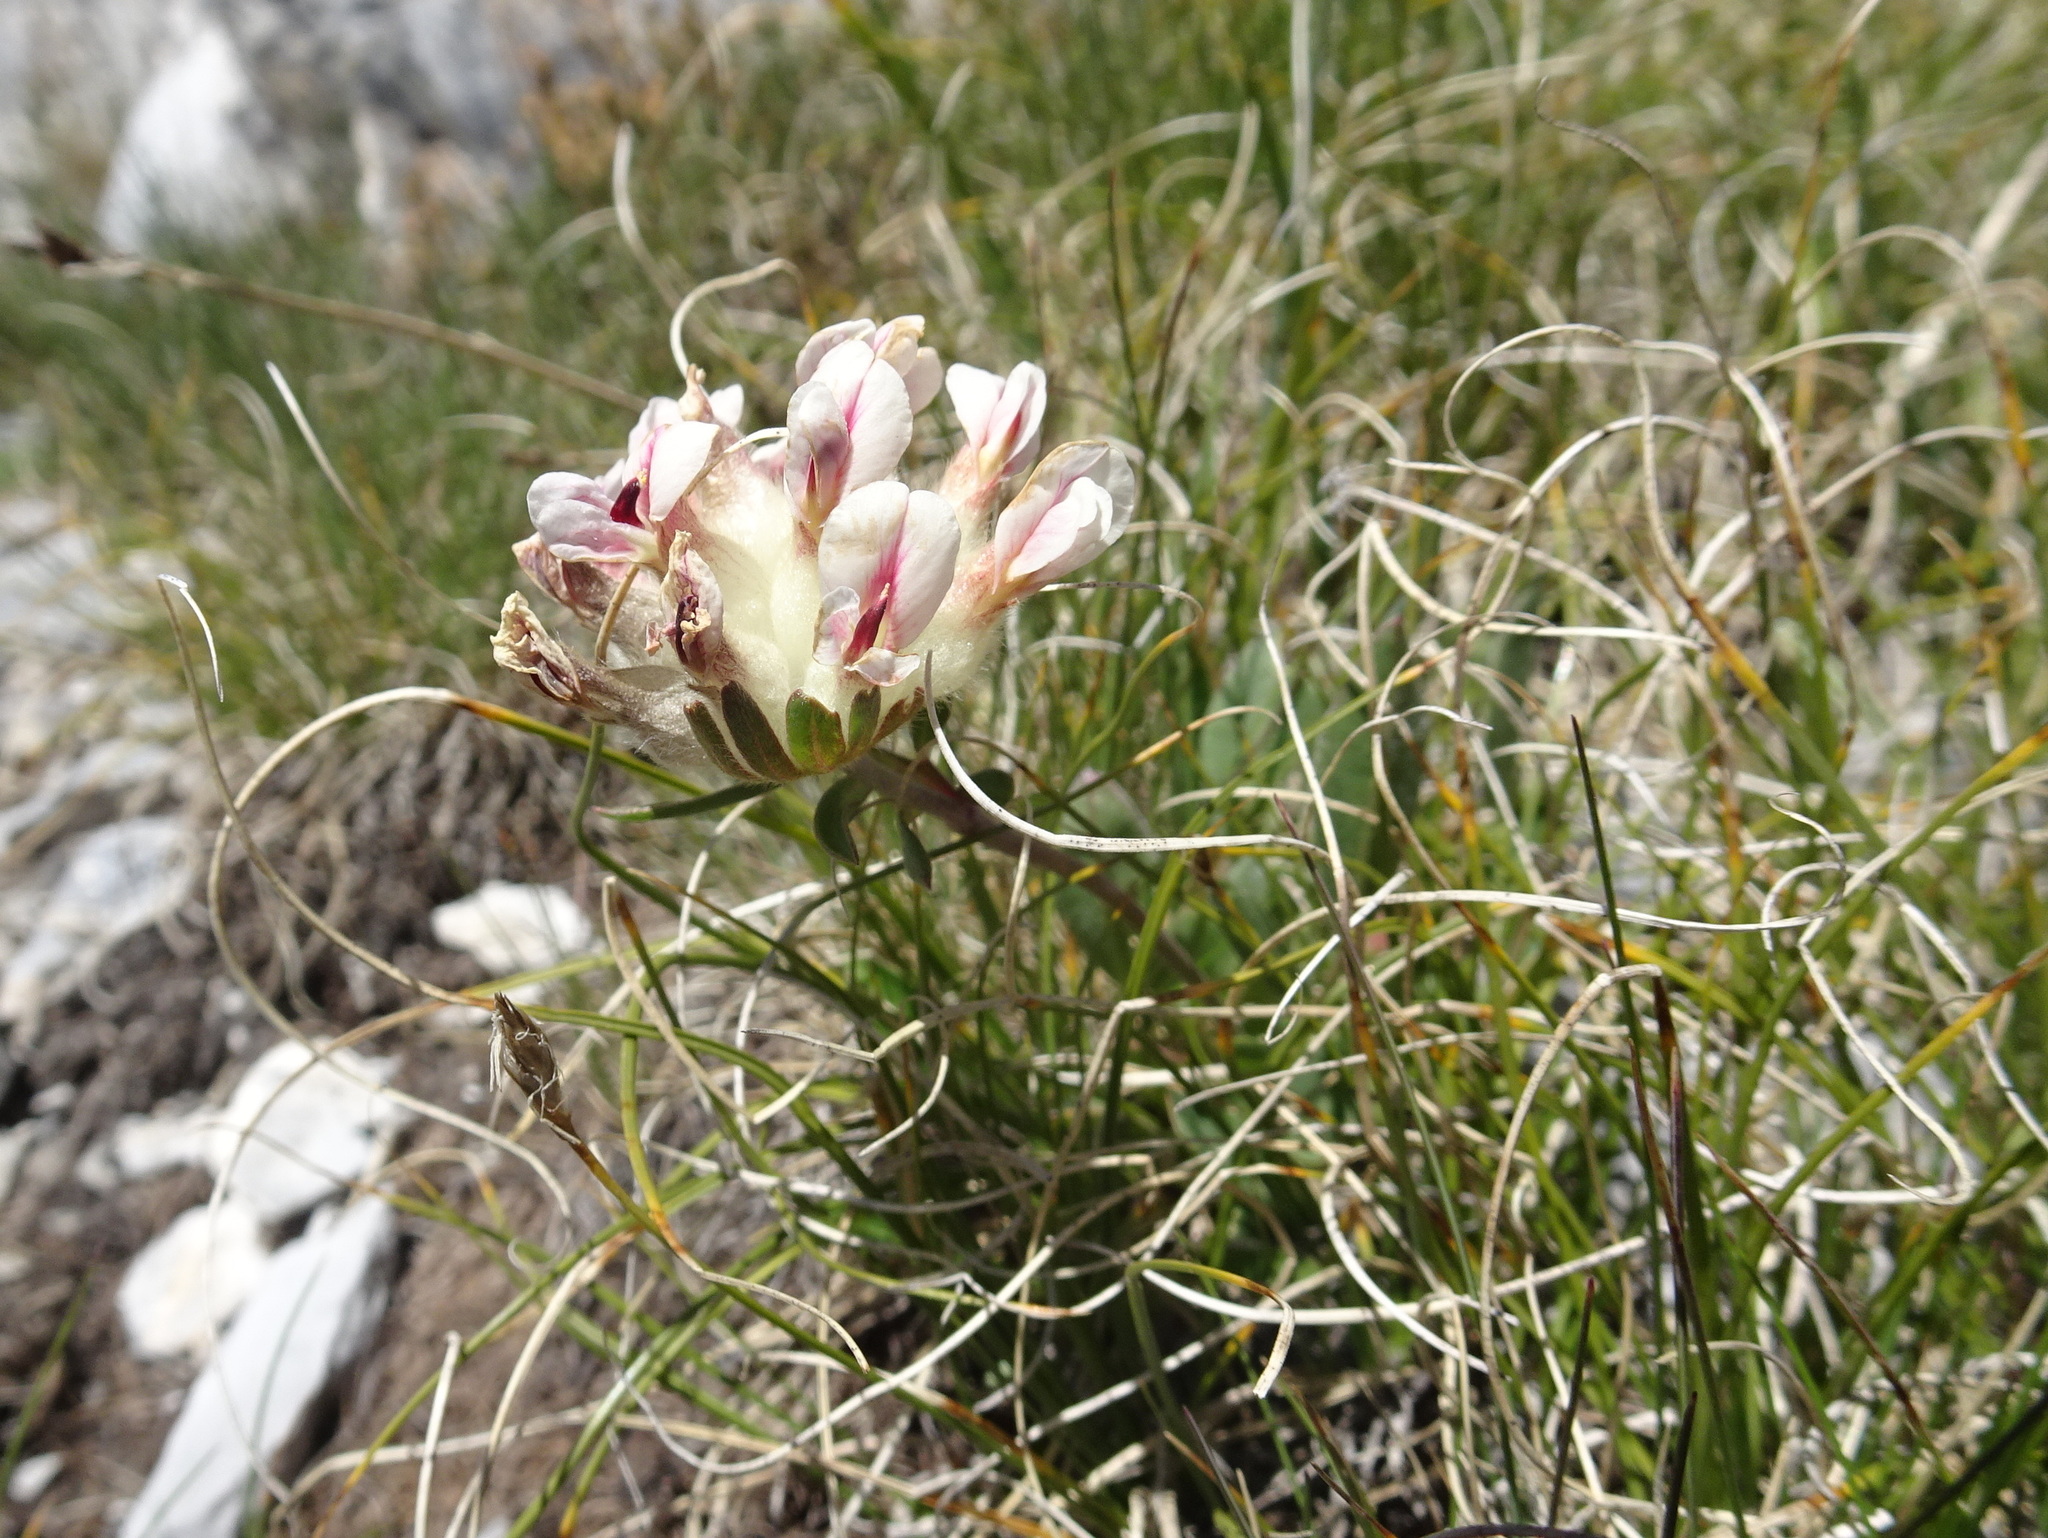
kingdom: Plantae
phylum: Tracheophyta
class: Magnoliopsida
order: Fabales
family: Fabaceae
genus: Anthyllis
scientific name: Anthyllis vulneraria
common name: Kidney vetch
